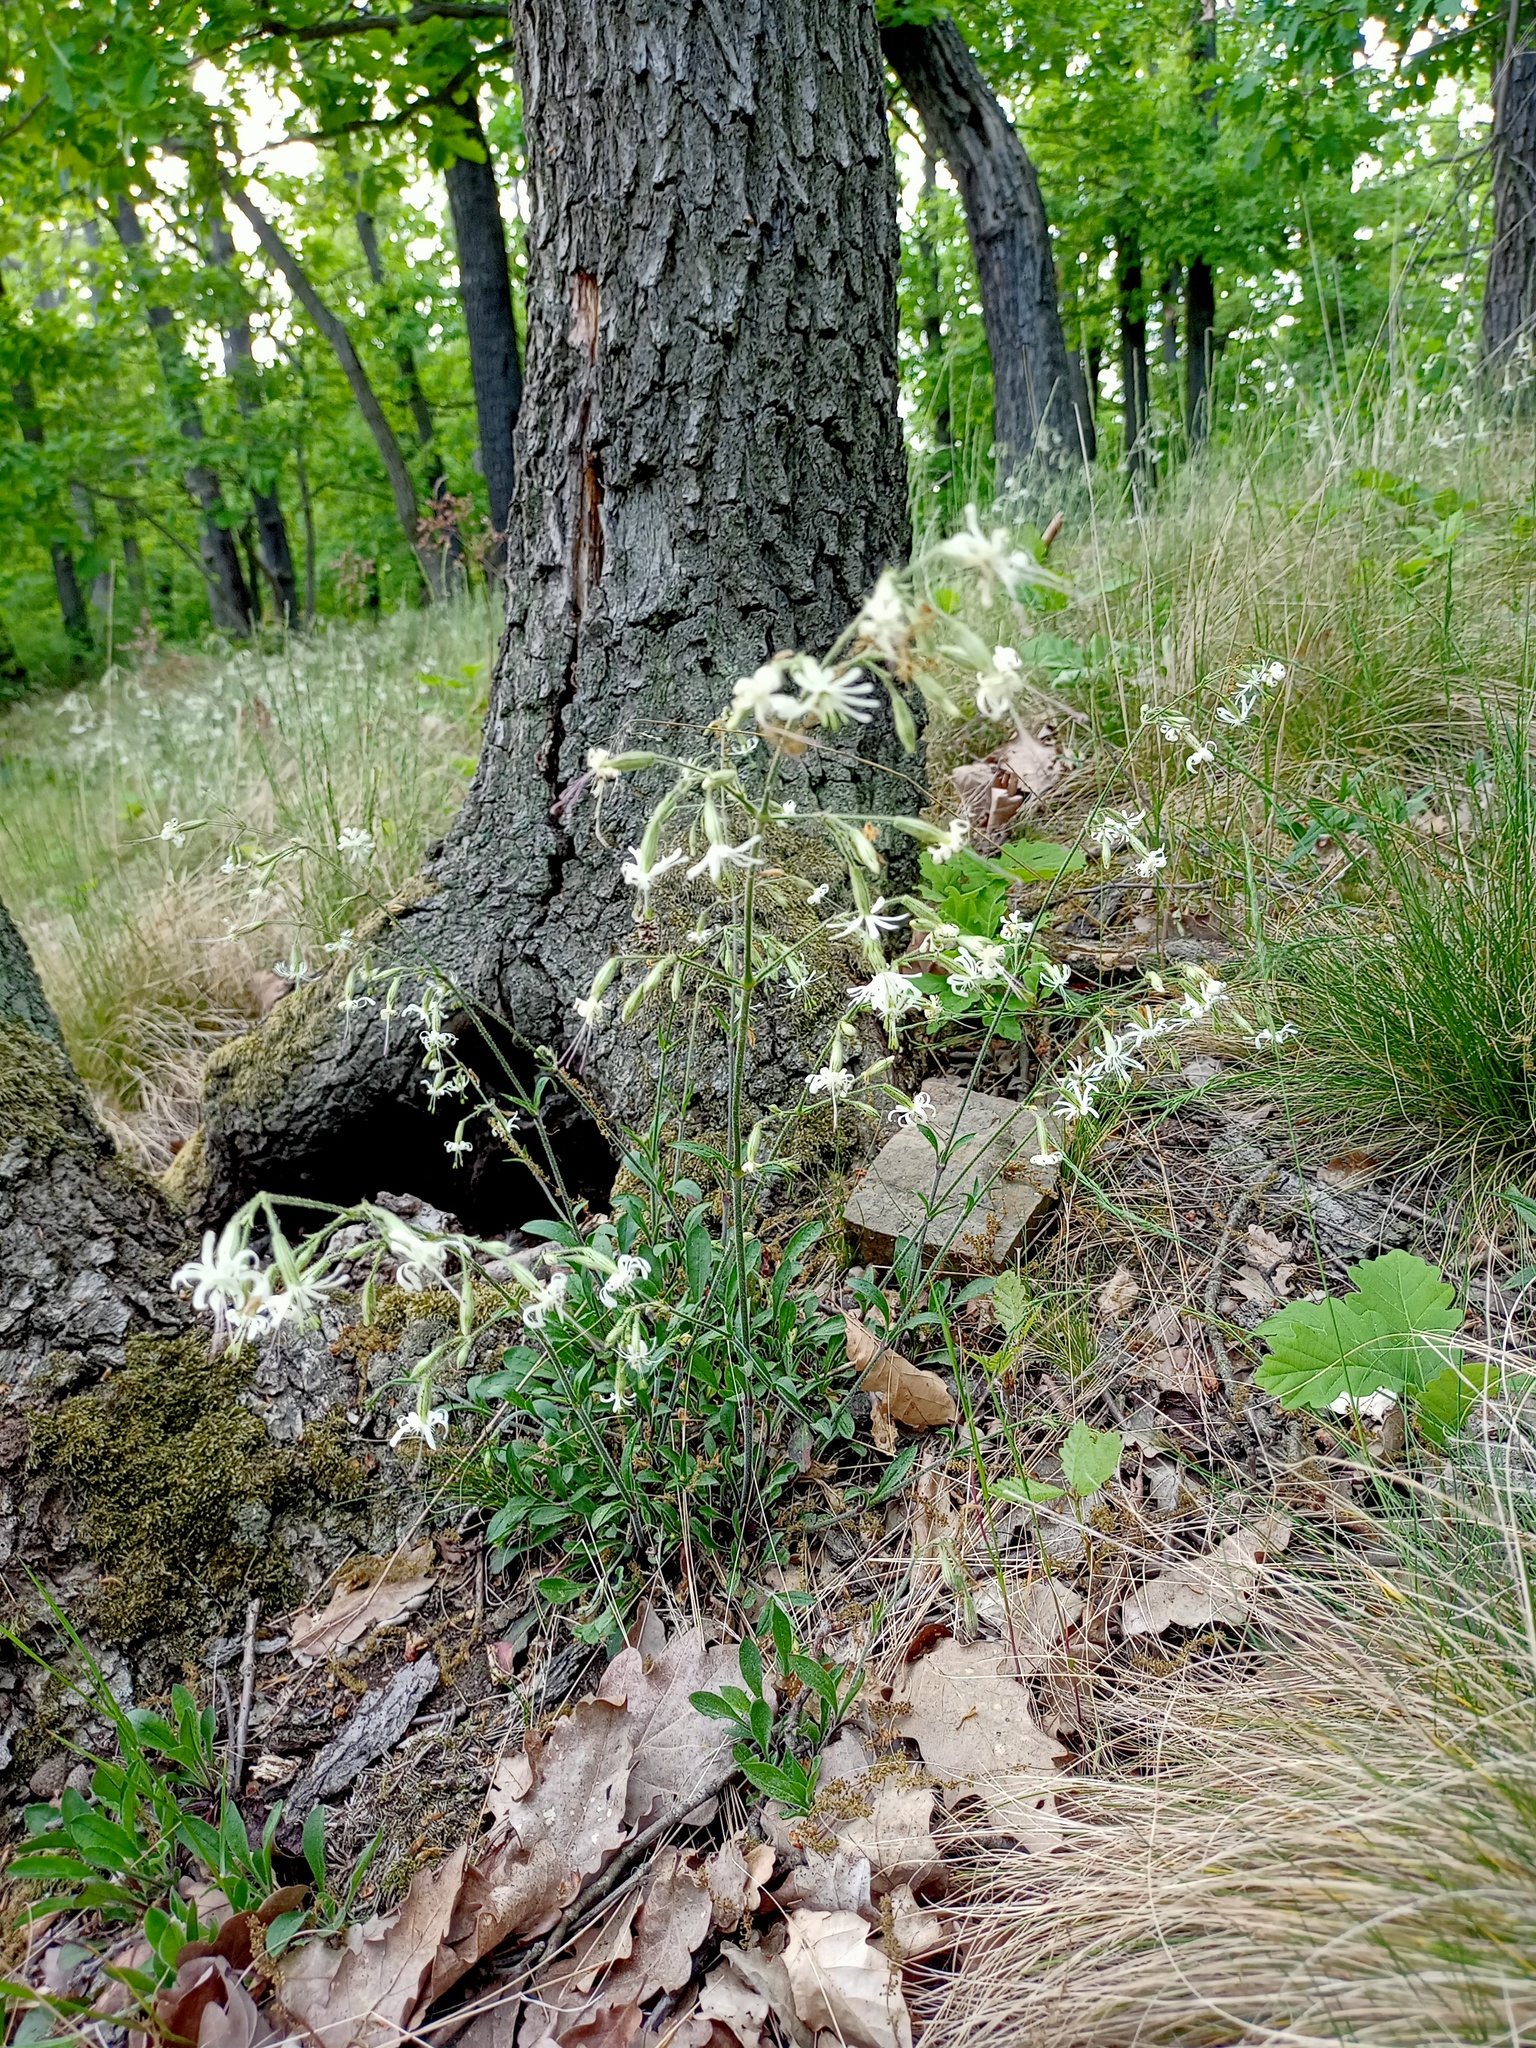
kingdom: Plantae
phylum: Tracheophyta
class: Magnoliopsida
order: Caryophyllales
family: Caryophyllaceae
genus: Silene
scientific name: Silene nutans
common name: Nottingham catchfly
